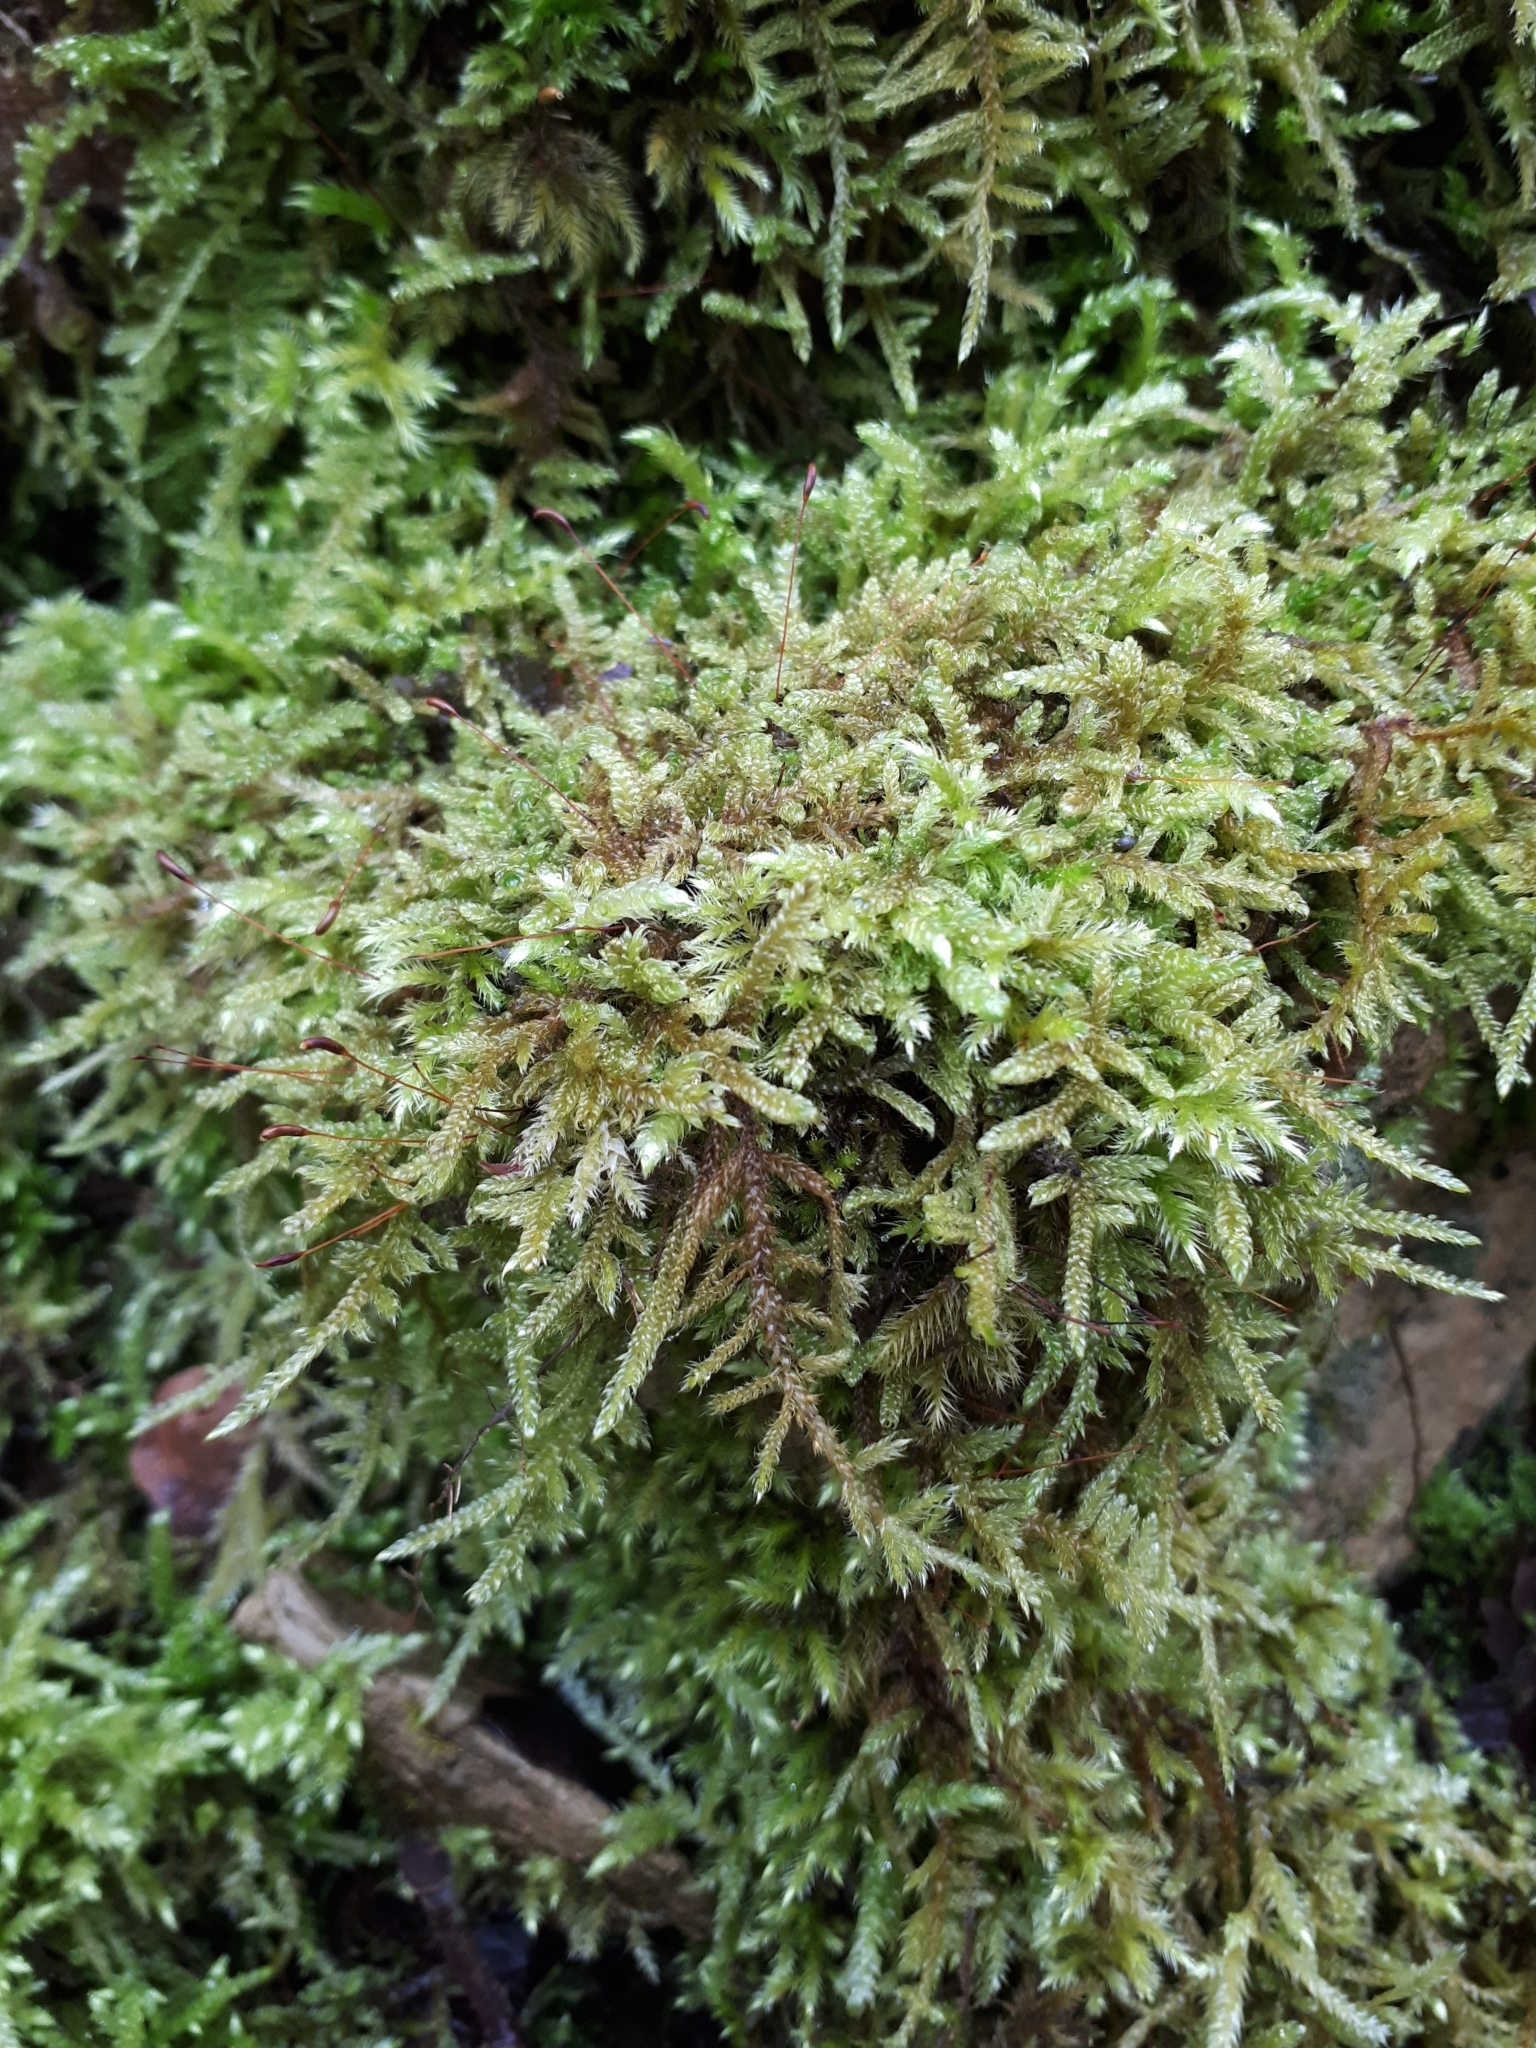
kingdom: Plantae
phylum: Bryophyta
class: Bryopsida
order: Hypnales
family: Hypnaceae
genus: Hypnum
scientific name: Hypnum cupressiforme
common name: Cypress-leaved plait-moss
